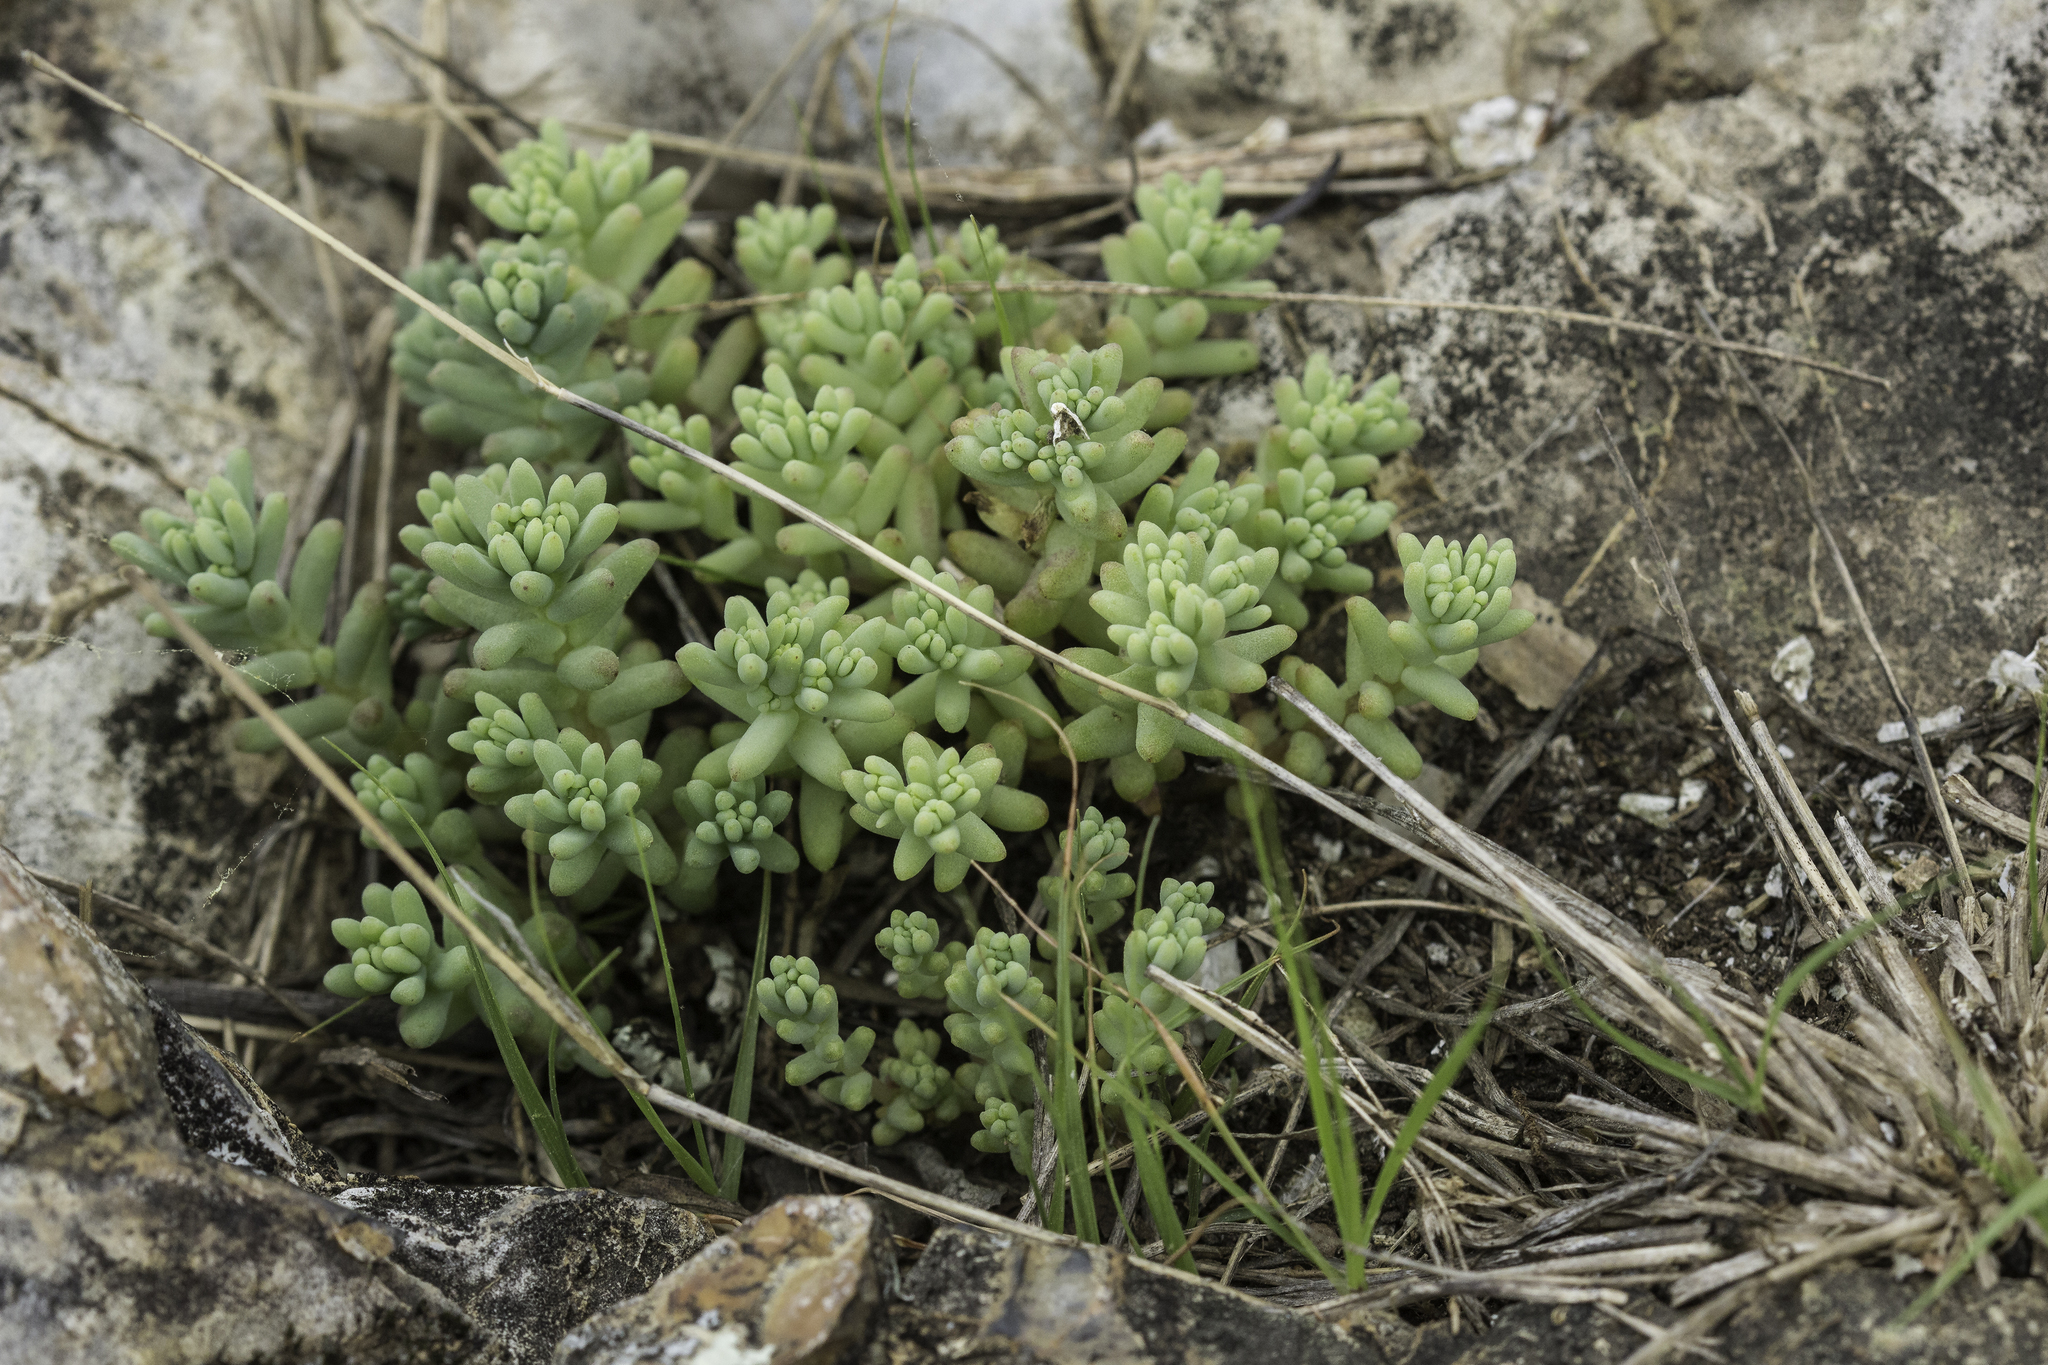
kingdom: Plantae
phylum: Tracheophyta
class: Magnoliopsida
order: Saxifragales
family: Crassulaceae
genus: Sedum
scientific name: Sedum nuttallii
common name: Yellow stonecrop
